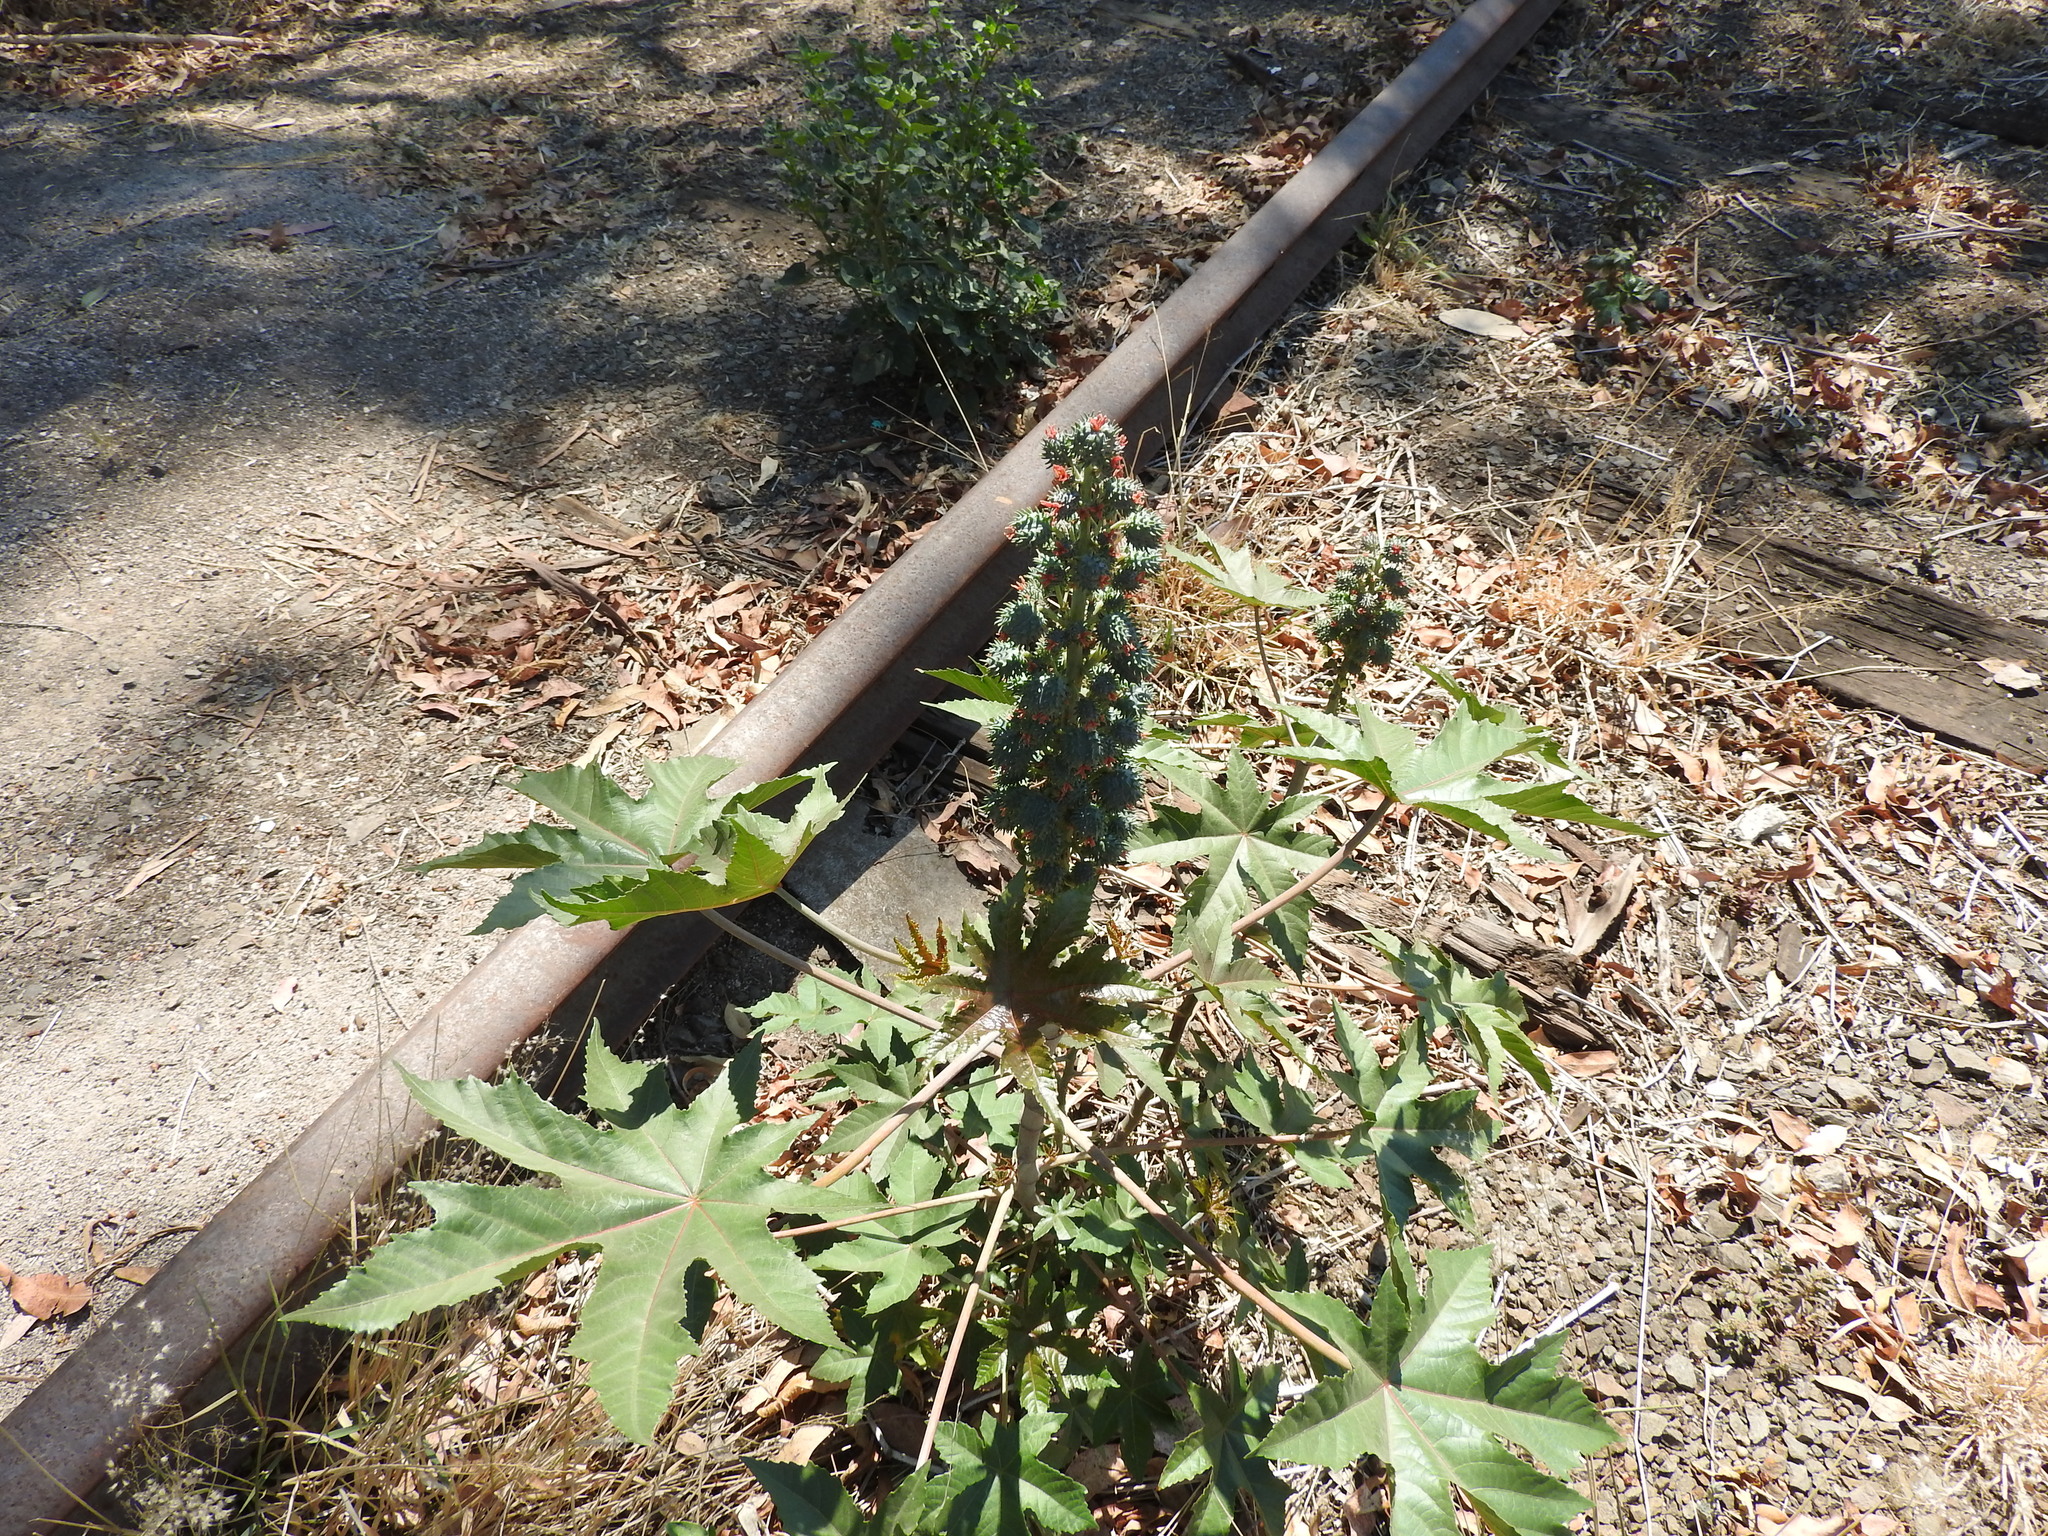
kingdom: Plantae
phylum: Tracheophyta
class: Magnoliopsida
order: Malpighiales
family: Euphorbiaceae
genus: Ricinus
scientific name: Ricinus communis
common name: Castor-oil-plant
